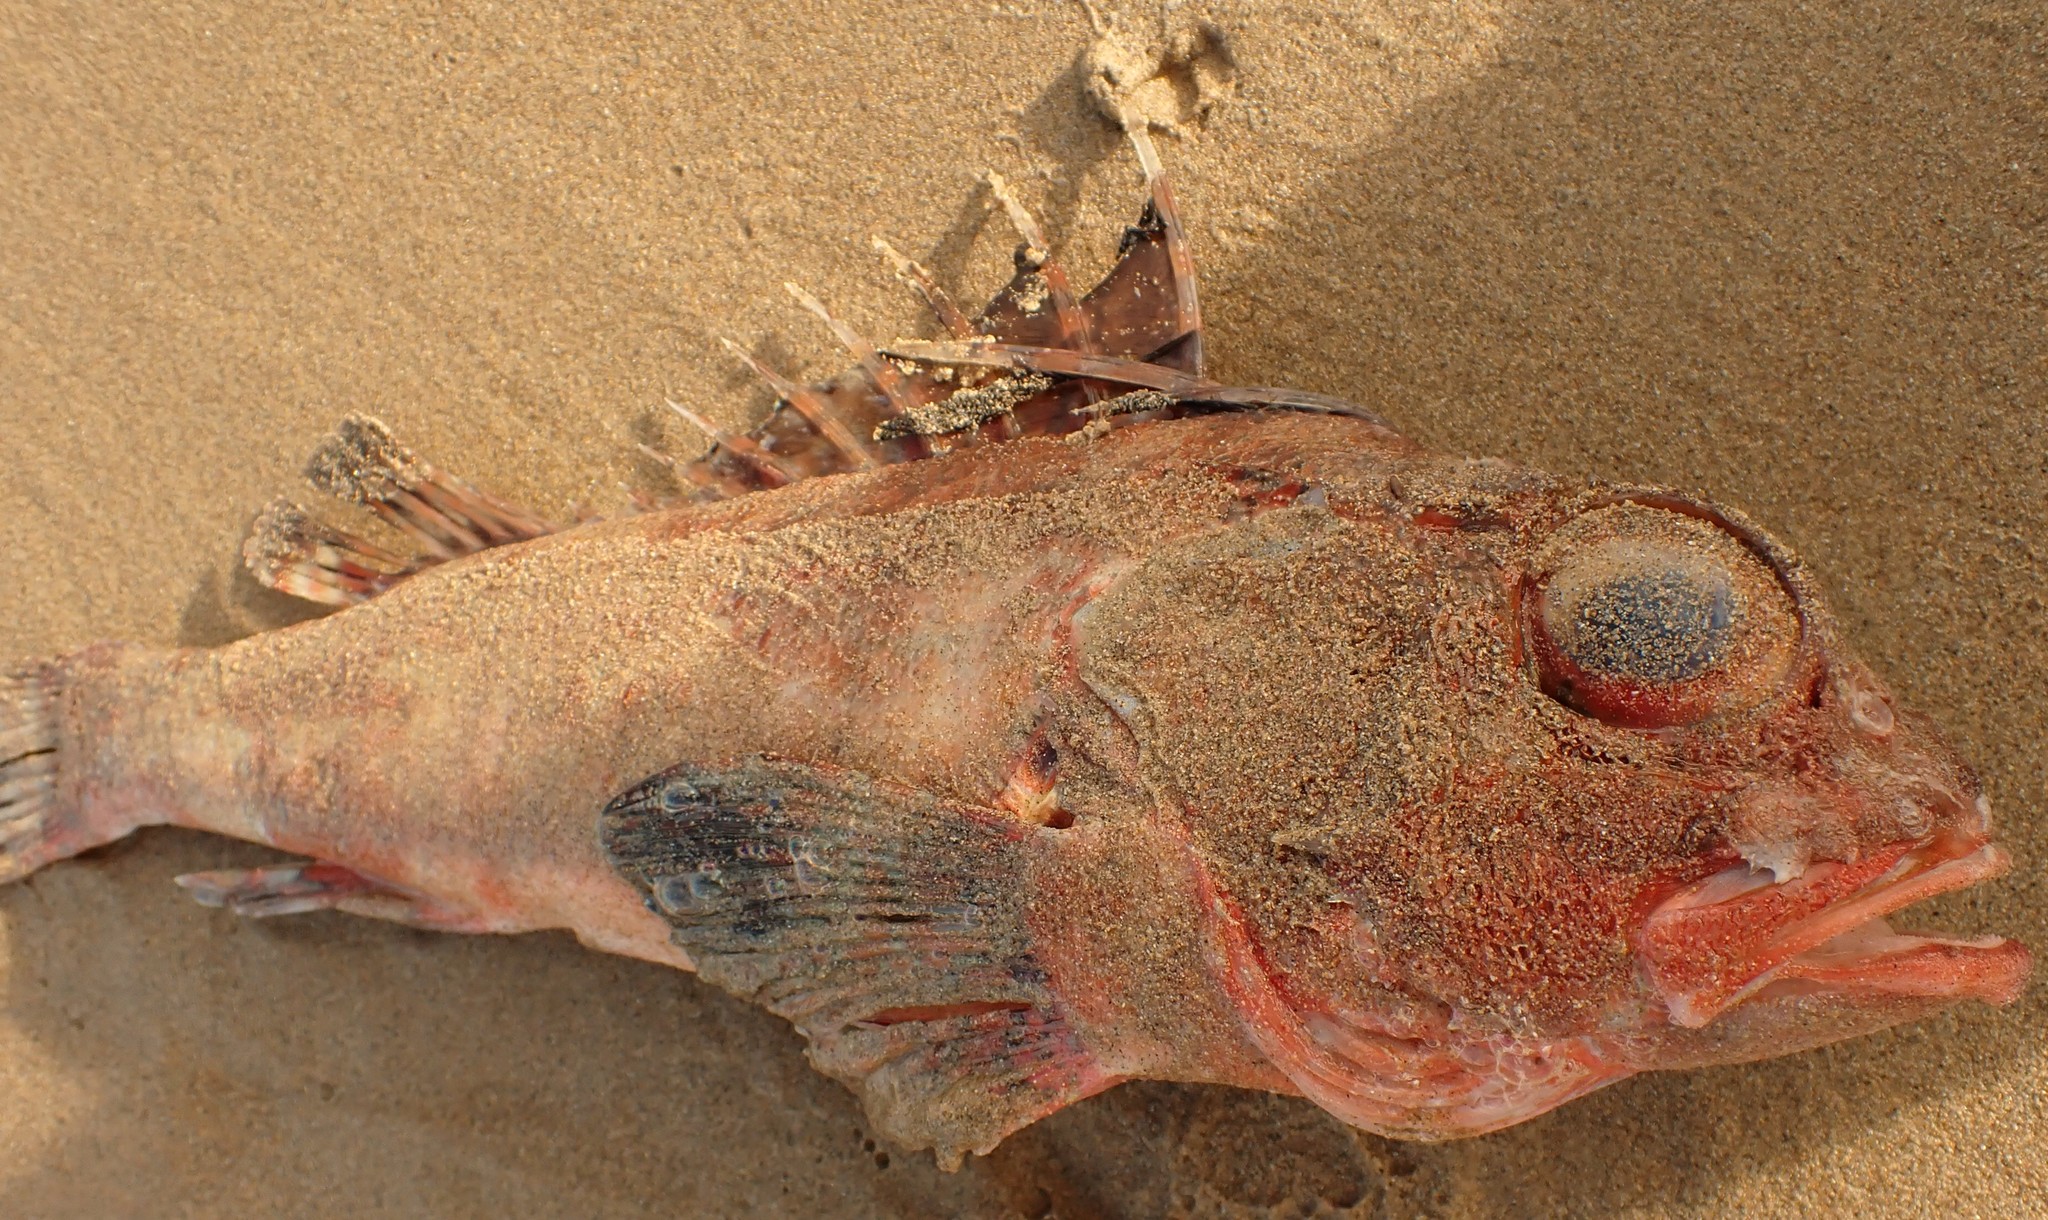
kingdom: Animalia
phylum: Chordata
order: Scorpaeniformes
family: Neosebastidae
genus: Neosebastes
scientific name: Neosebastes scorpaenoides
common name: Cobbler perch
